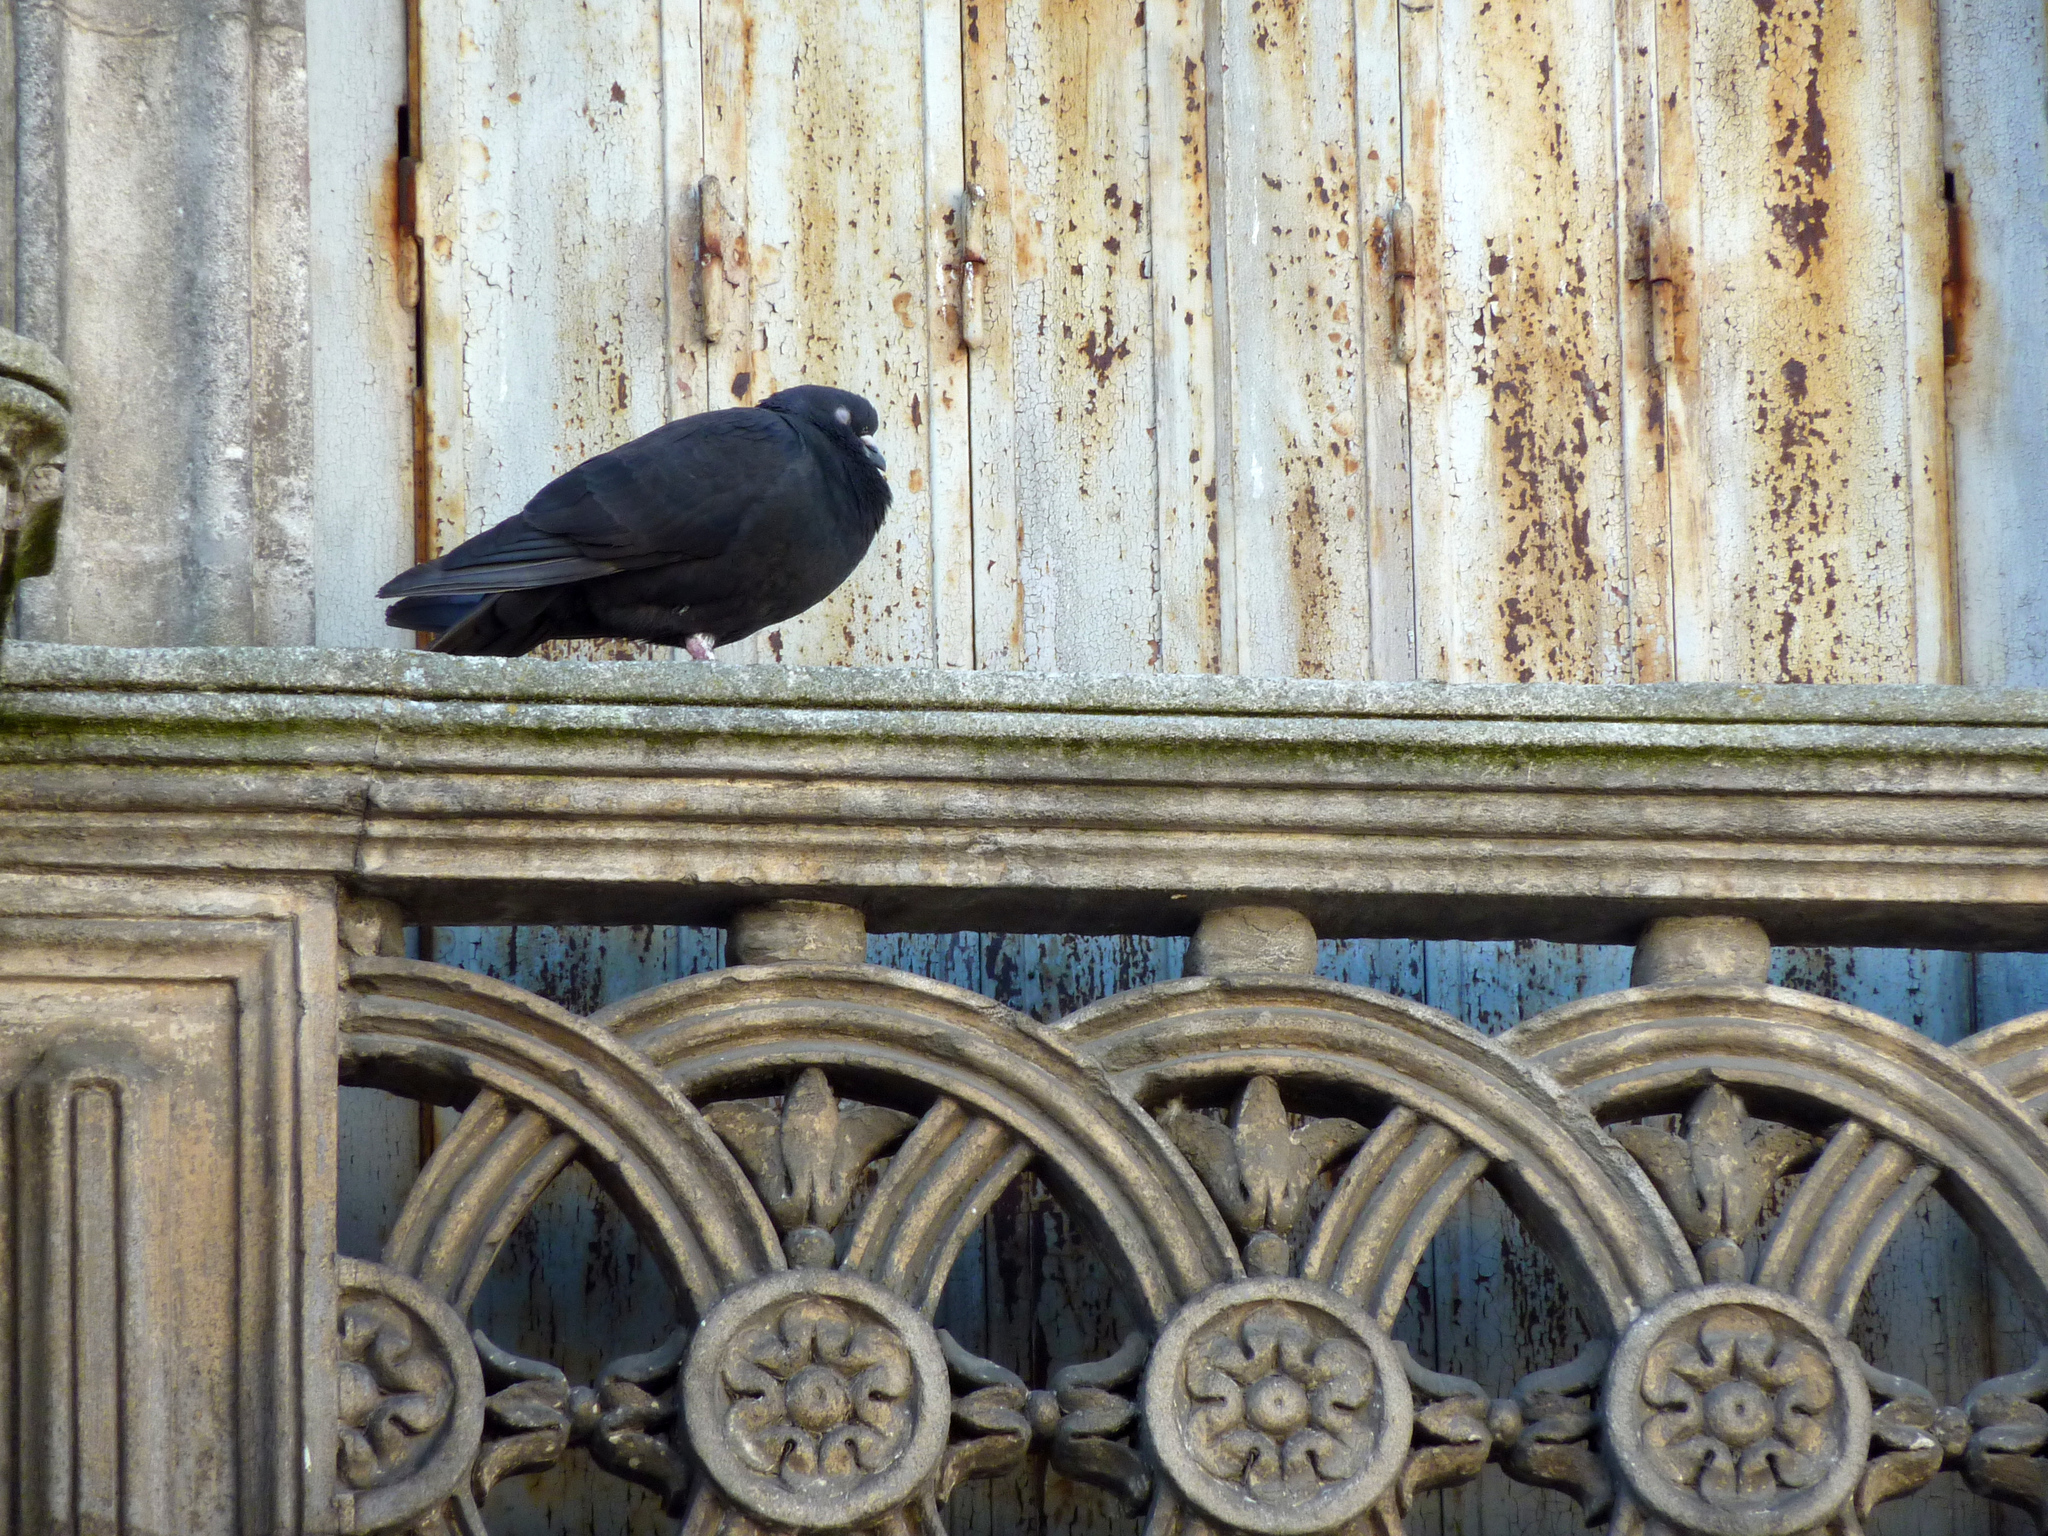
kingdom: Animalia
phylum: Chordata
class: Aves
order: Columbiformes
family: Columbidae
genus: Columba
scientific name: Columba livia
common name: Rock pigeon
